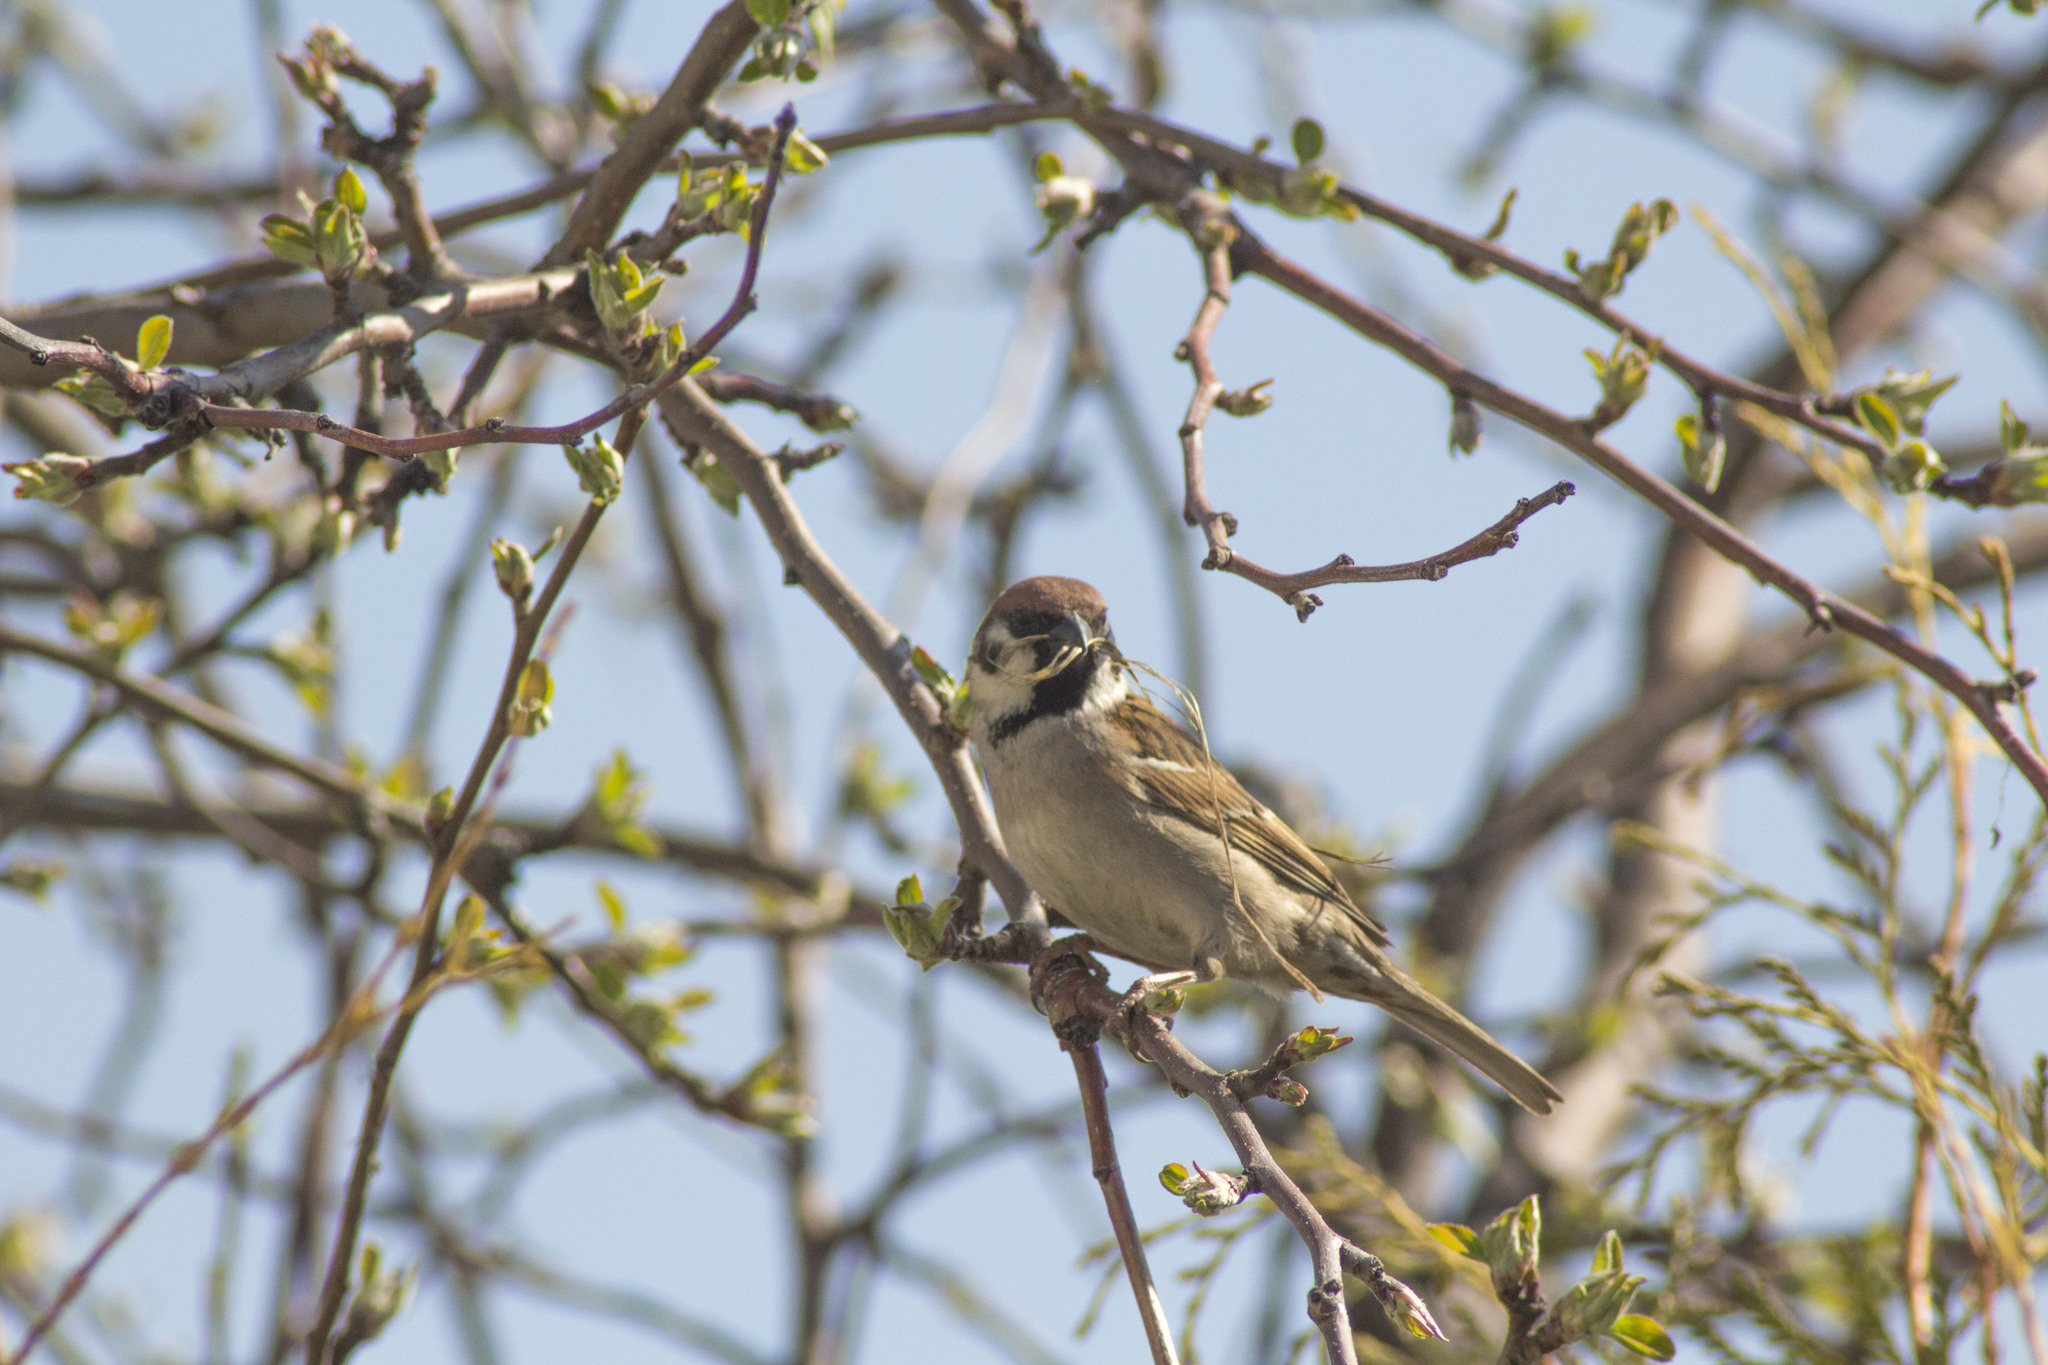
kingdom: Animalia
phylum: Chordata
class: Aves
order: Passeriformes
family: Passeridae
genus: Passer
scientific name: Passer montanus
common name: Eurasian tree sparrow
